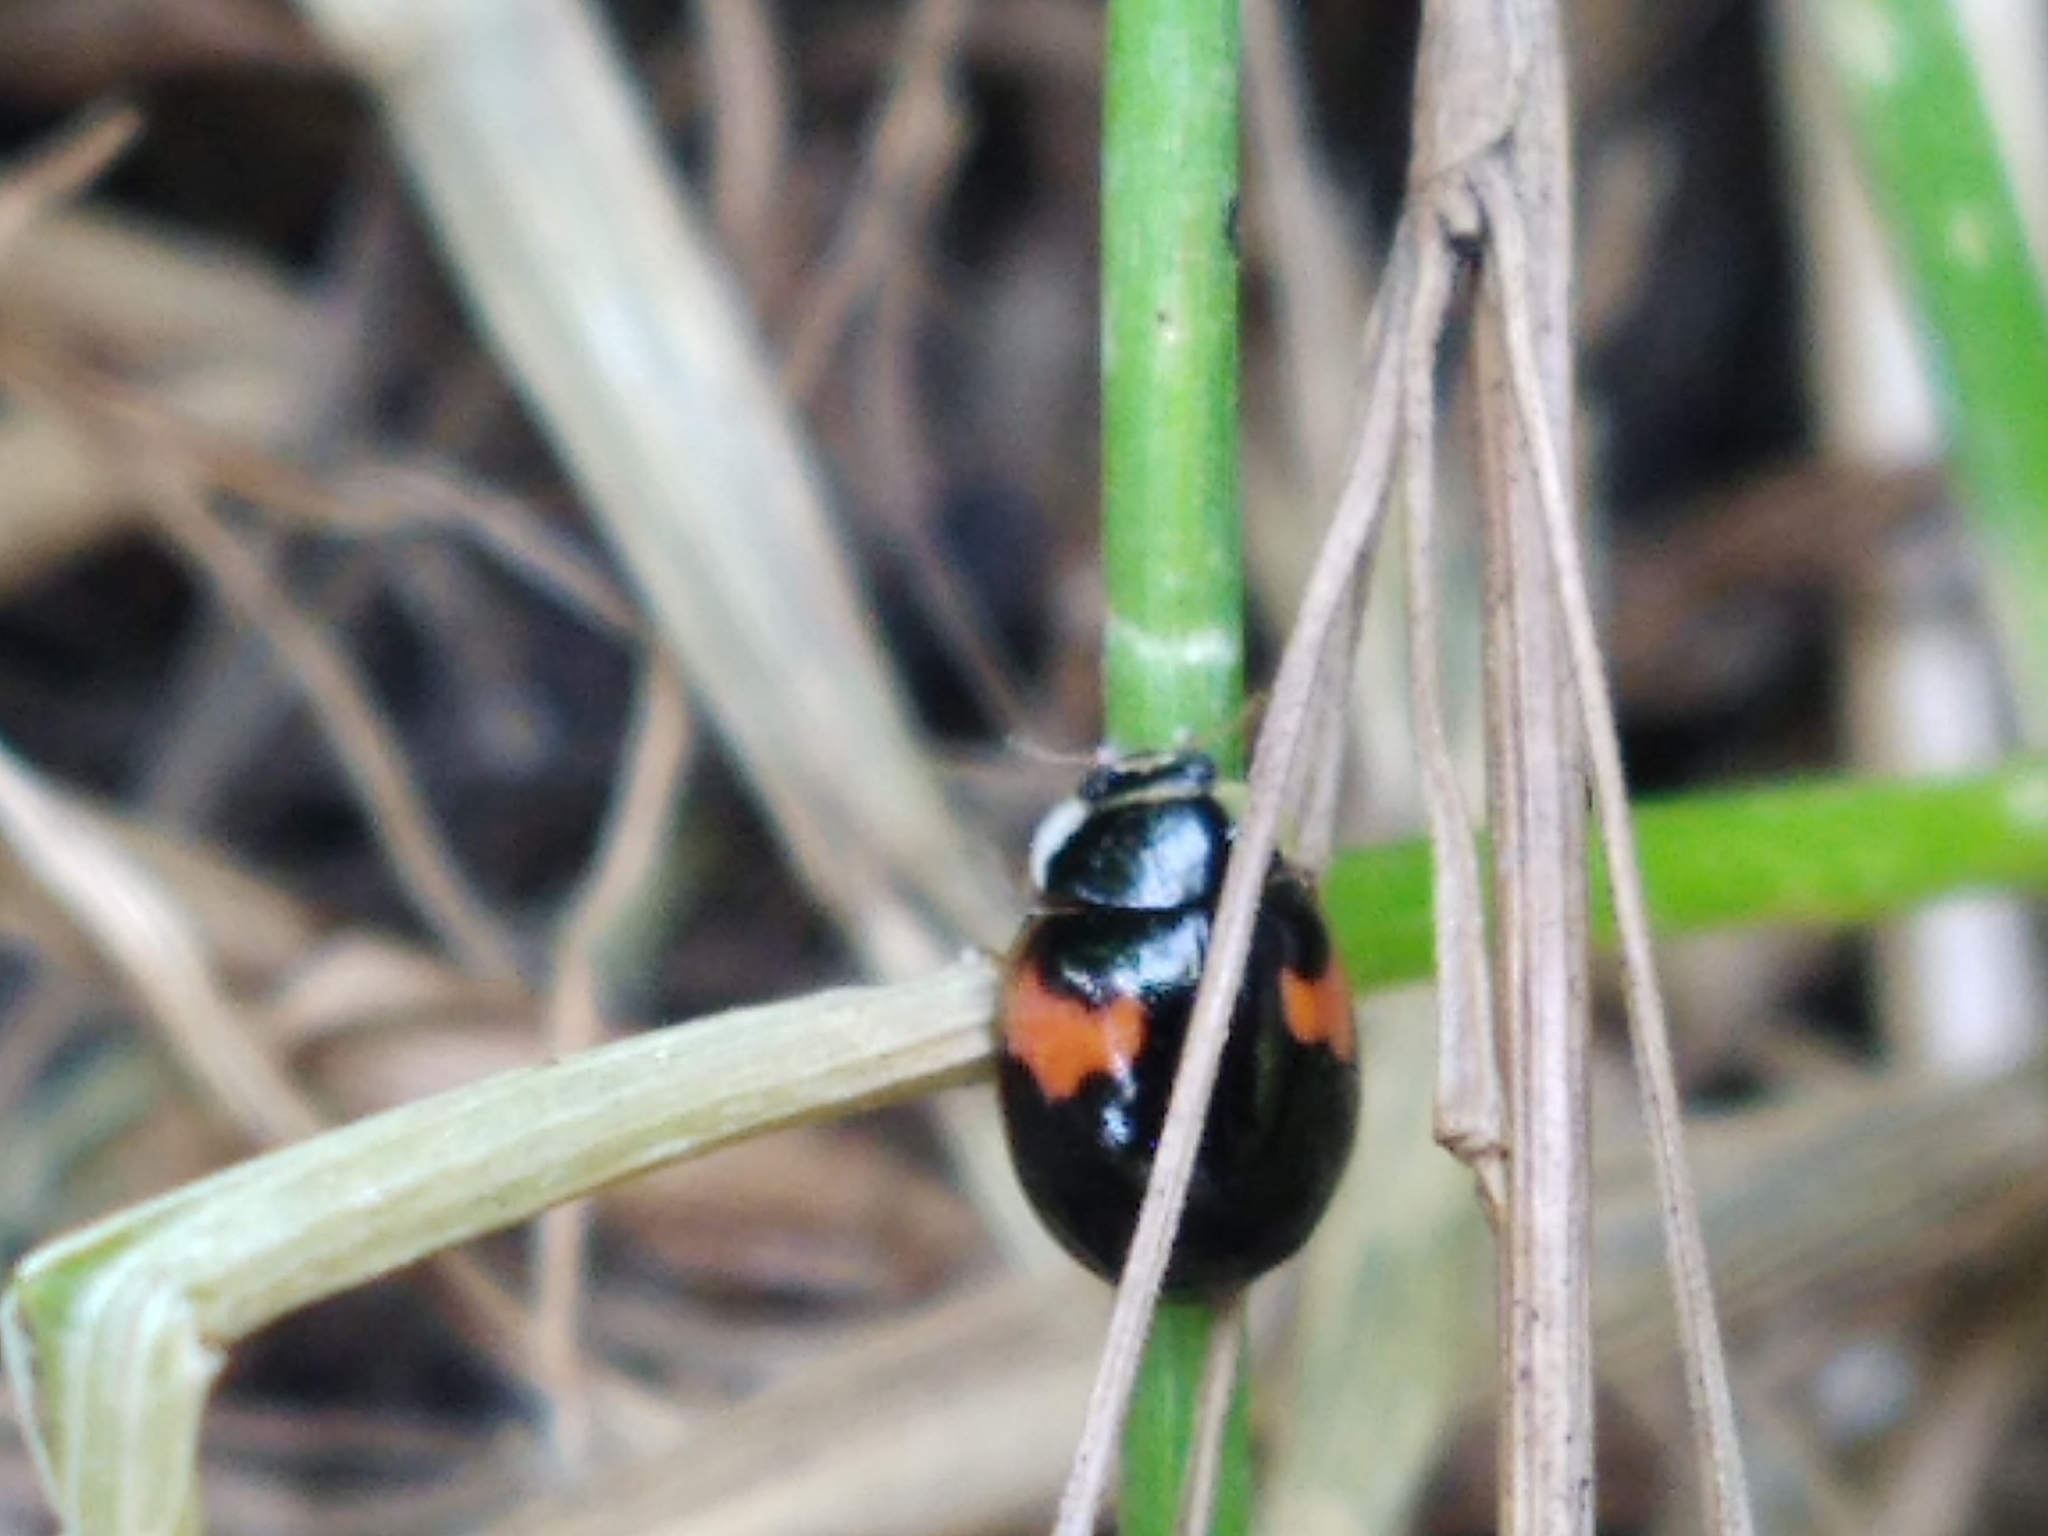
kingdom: Animalia
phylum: Arthropoda
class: Insecta
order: Coleoptera
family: Coccinellidae
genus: Adalia
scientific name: Adalia decempunctata
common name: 10-spot ladybird
